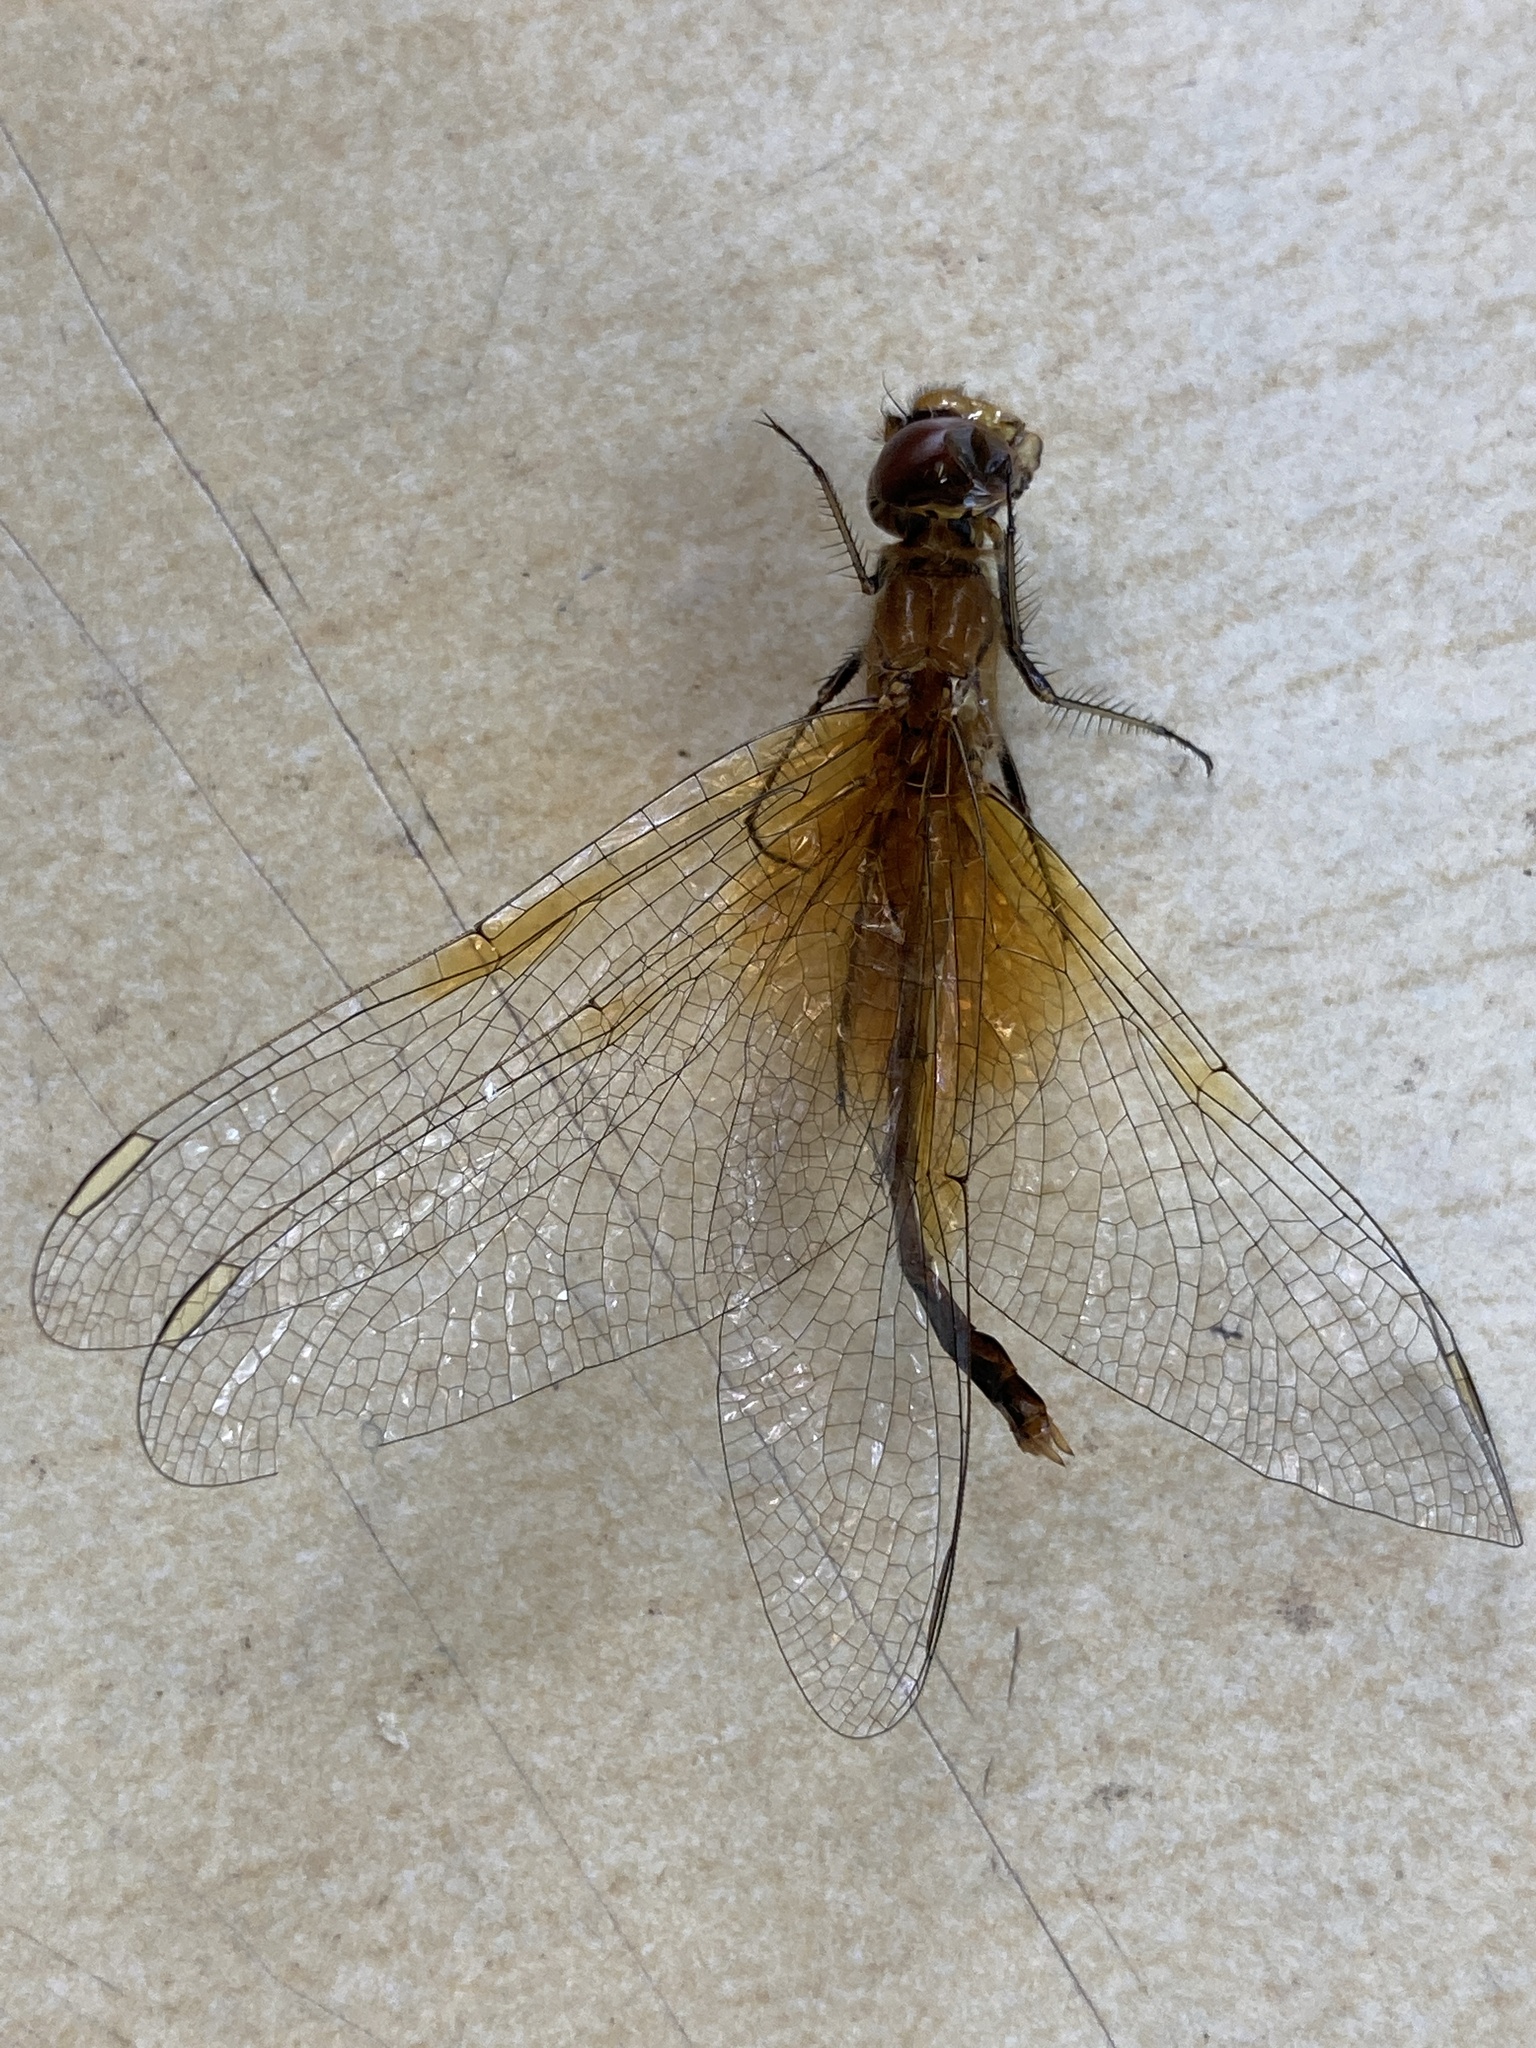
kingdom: Animalia
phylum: Arthropoda
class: Insecta
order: Odonata
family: Libellulidae
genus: Sympetrum
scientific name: Sympetrum flaveolum
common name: Yellow-winged darter
